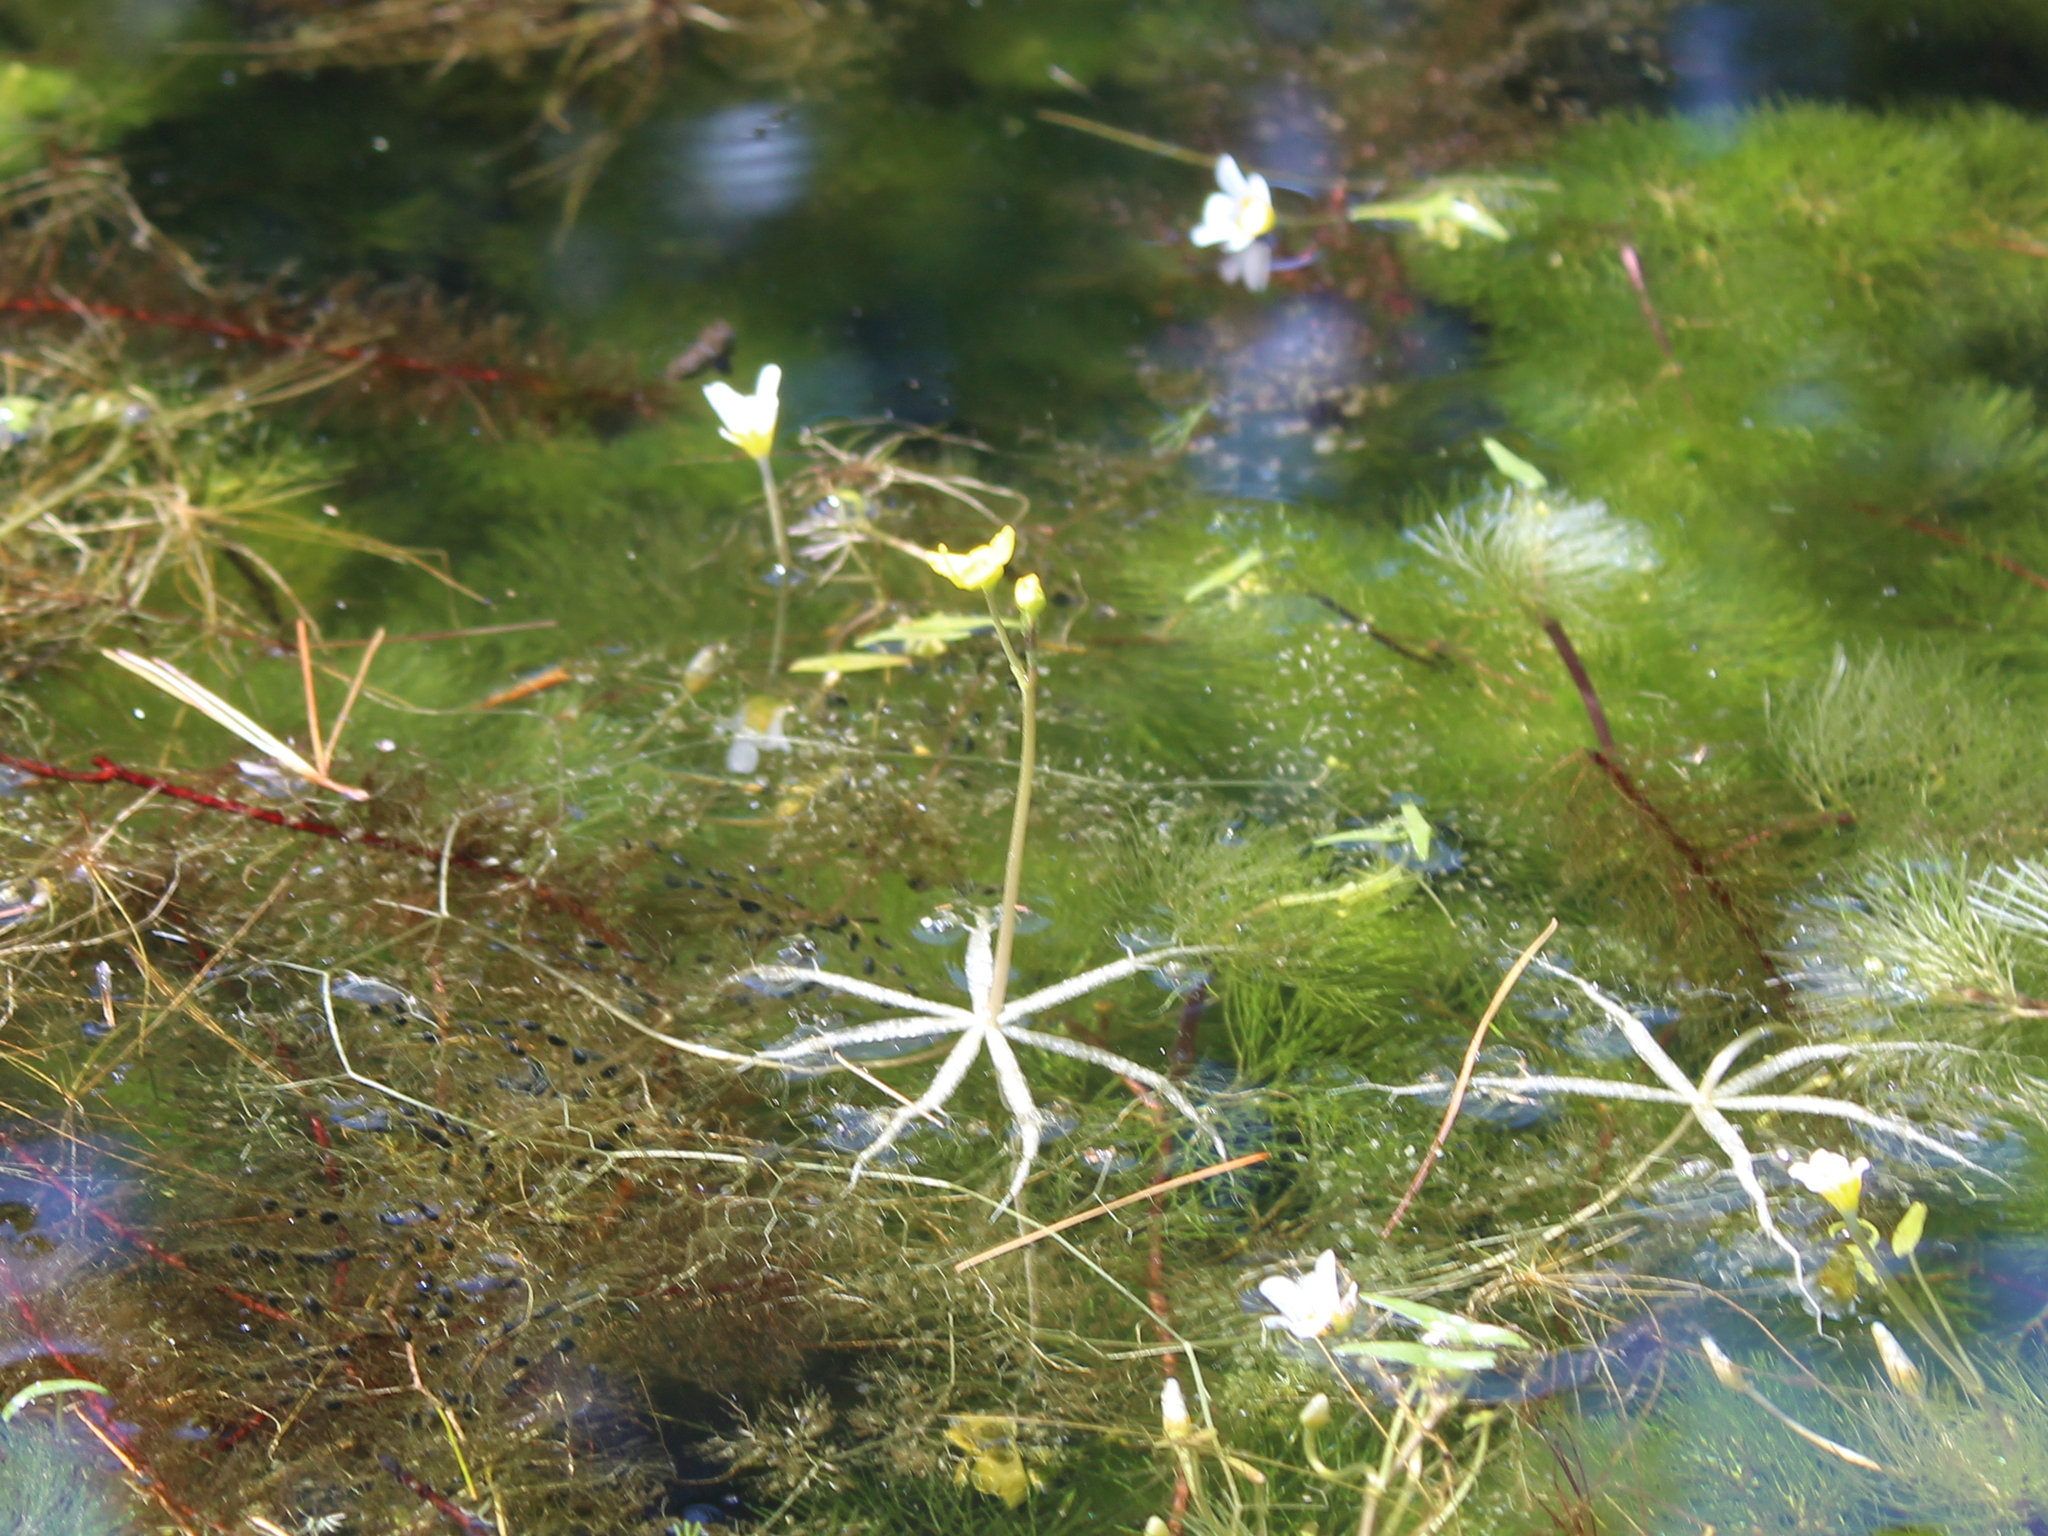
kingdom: Plantae
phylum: Tracheophyta
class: Magnoliopsida
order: Lamiales
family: Lentibulariaceae
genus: Utricularia
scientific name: Utricularia radiata
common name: Floating bladderwort
